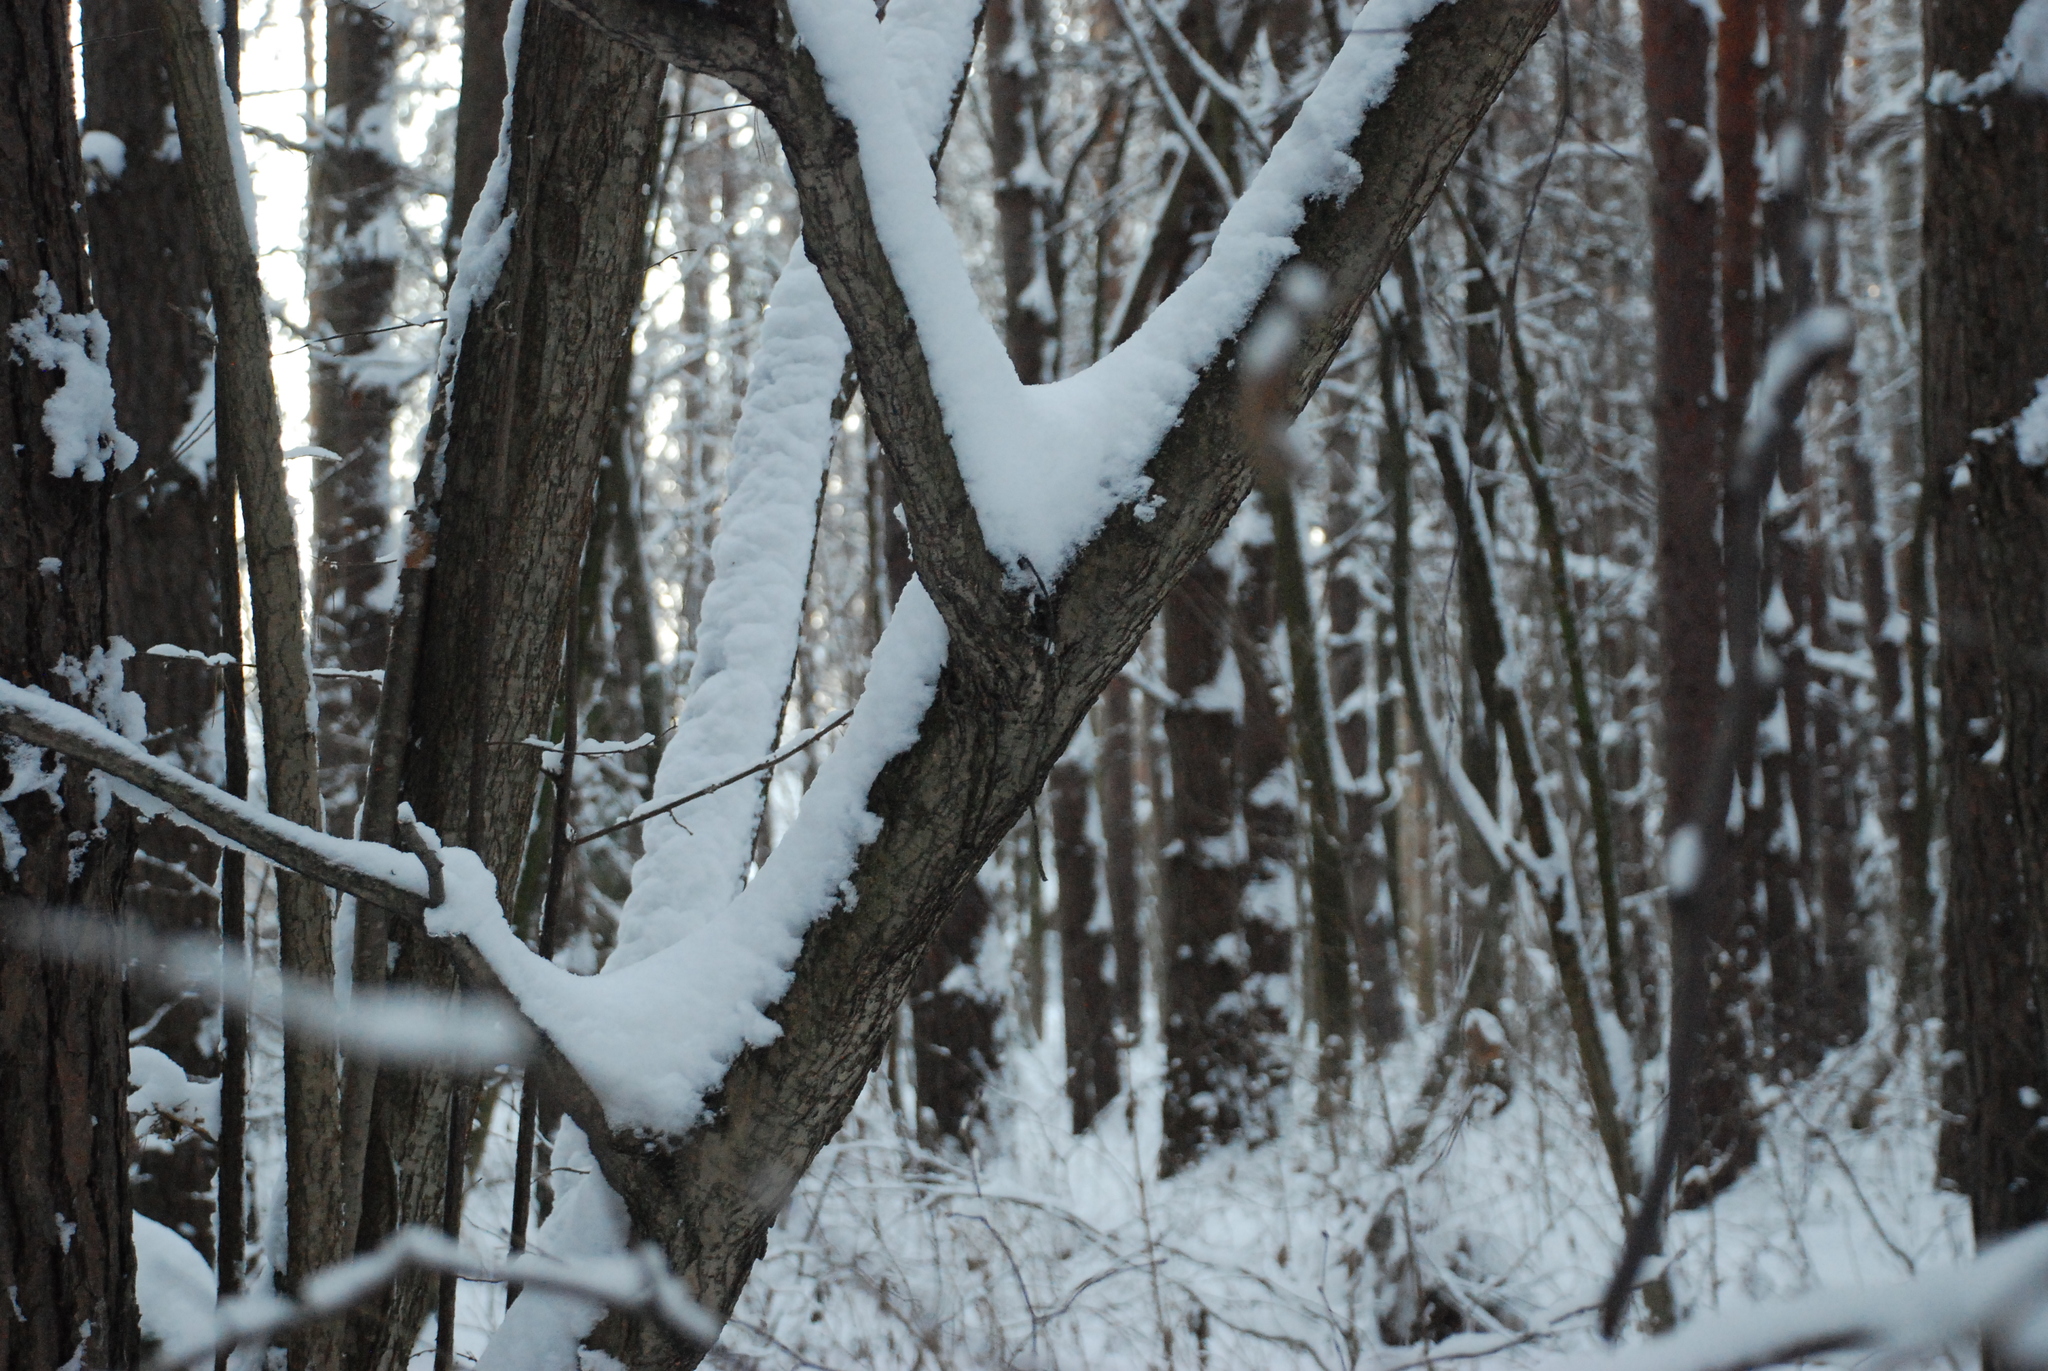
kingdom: Plantae
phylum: Tracheophyta
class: Magnoliopsida
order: Fagales
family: Betulaceae
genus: Corylus
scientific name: Corylus avellana
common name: European hazel
